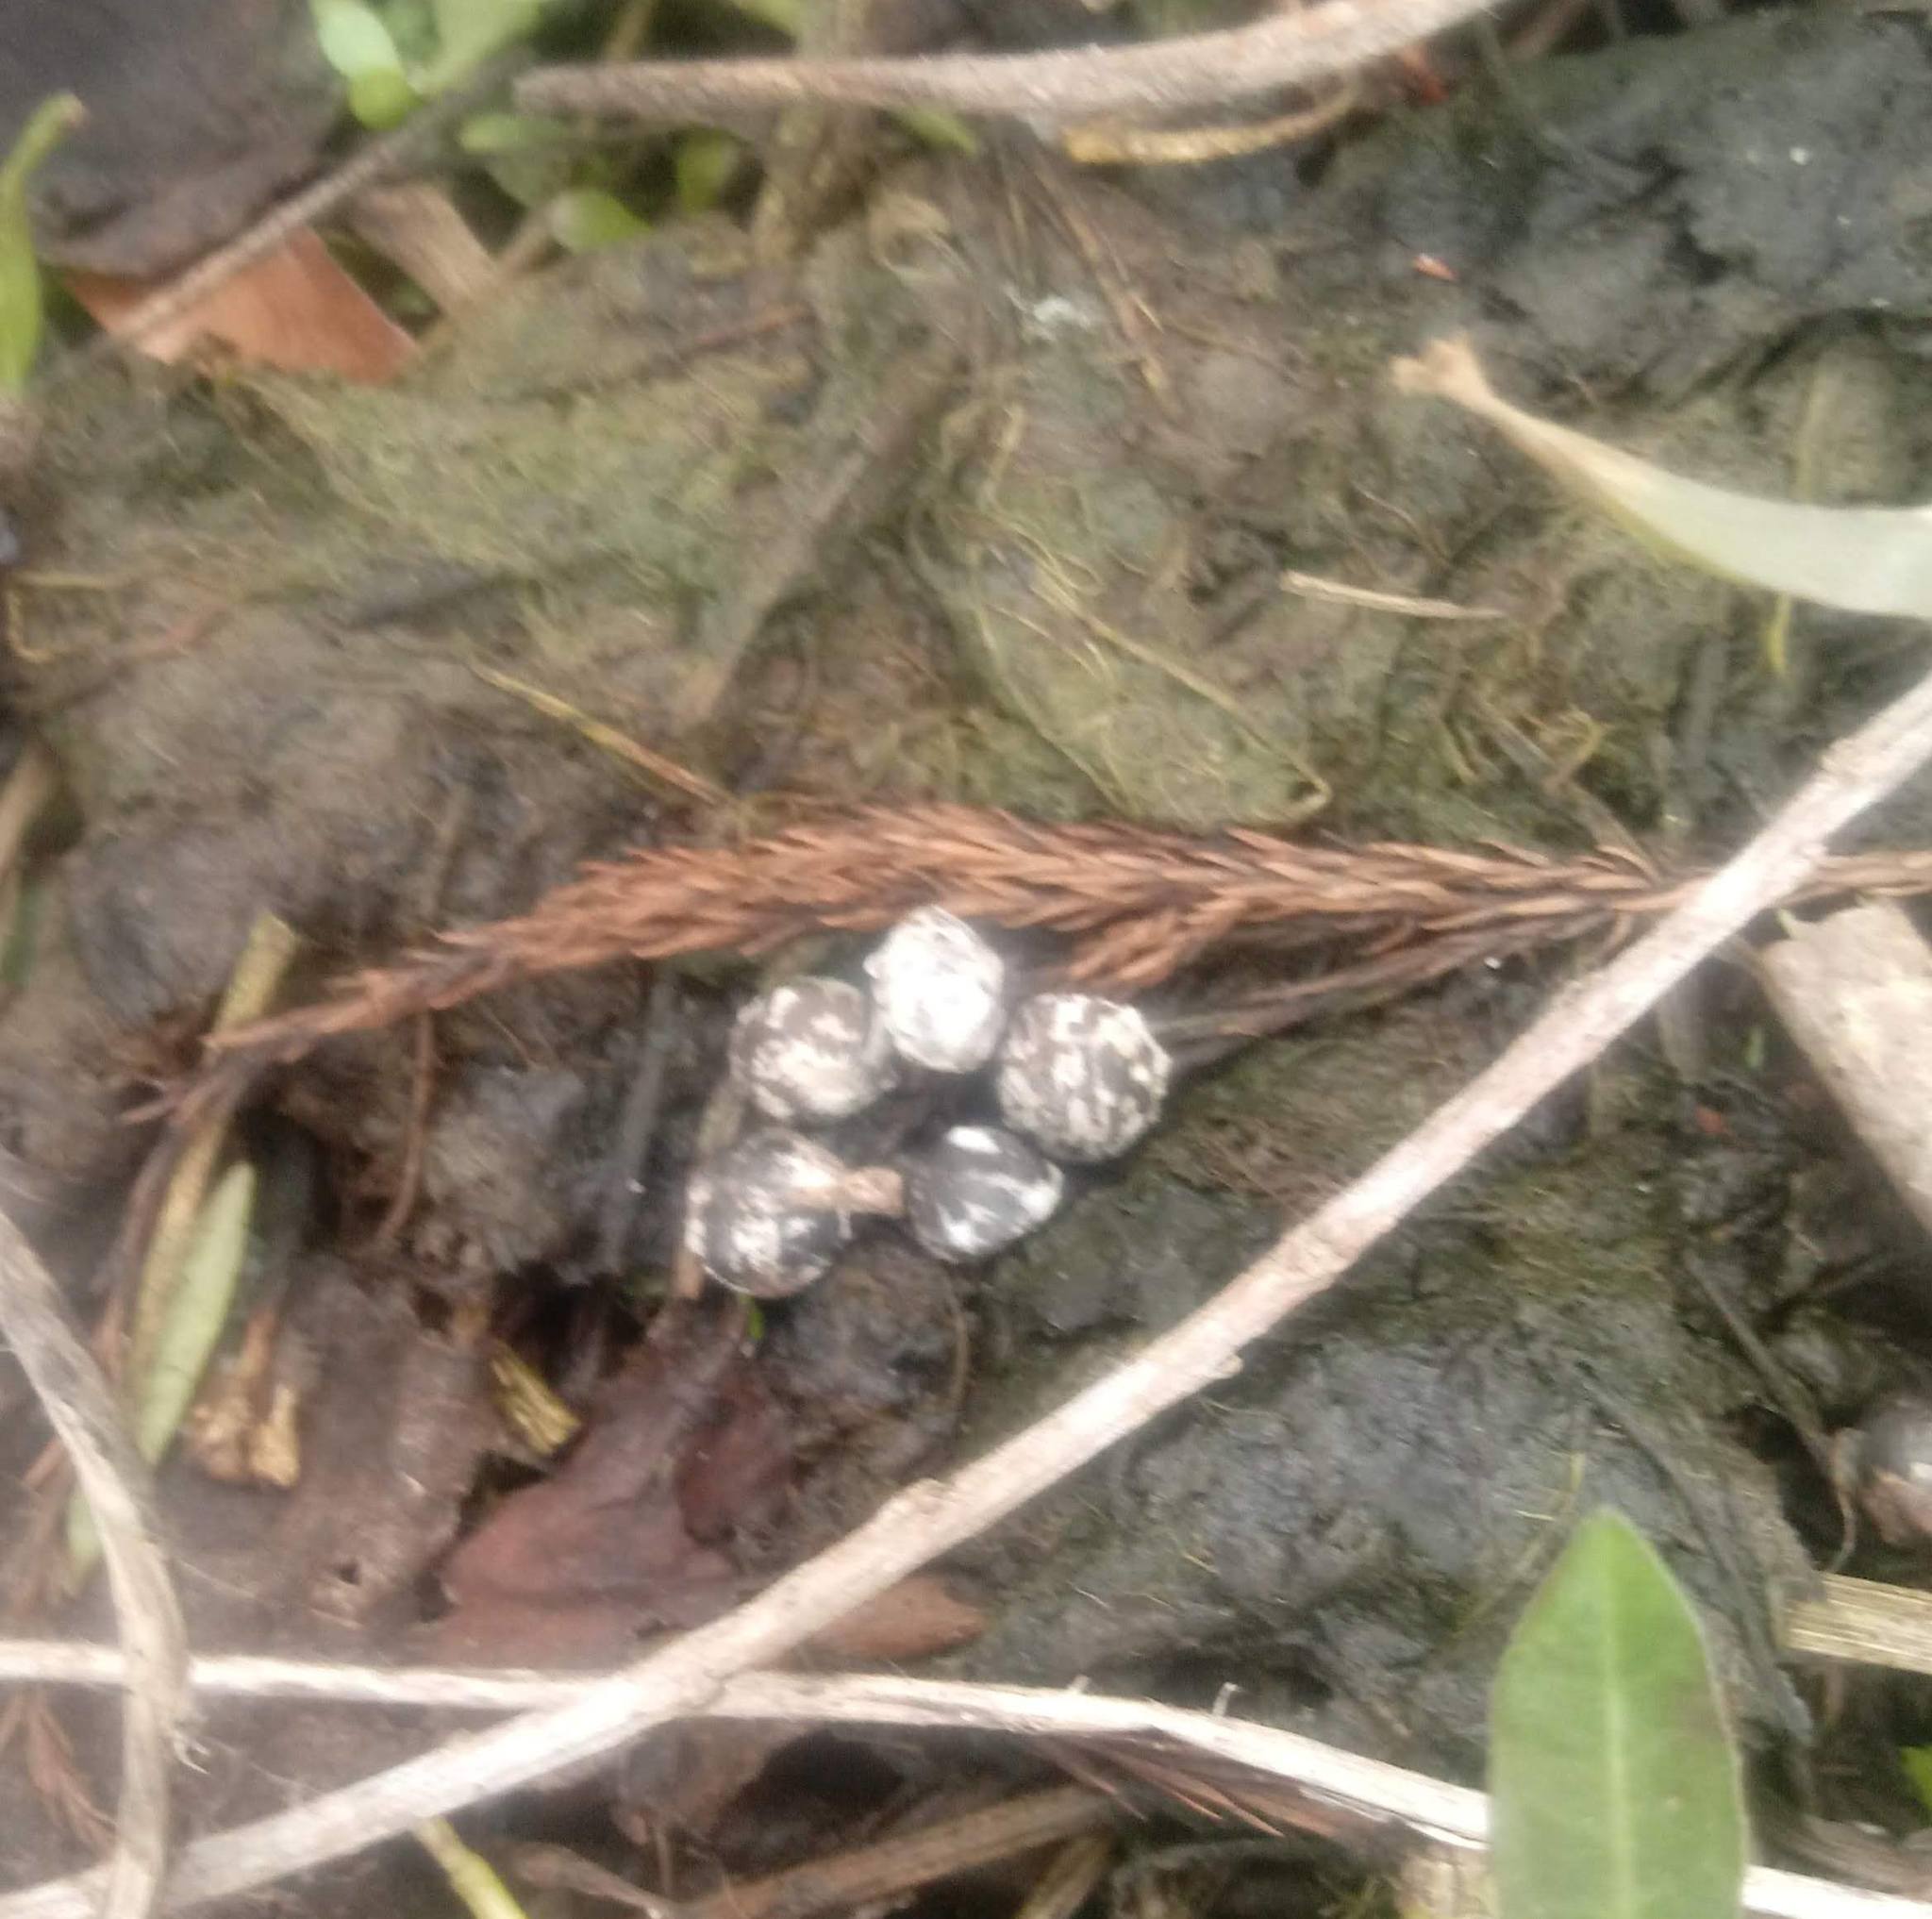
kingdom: Animalia
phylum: Chordata
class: Mammalia
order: Carnivora
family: Procyonidae
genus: Procyon
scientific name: Procyon lotor
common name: Raccoon
